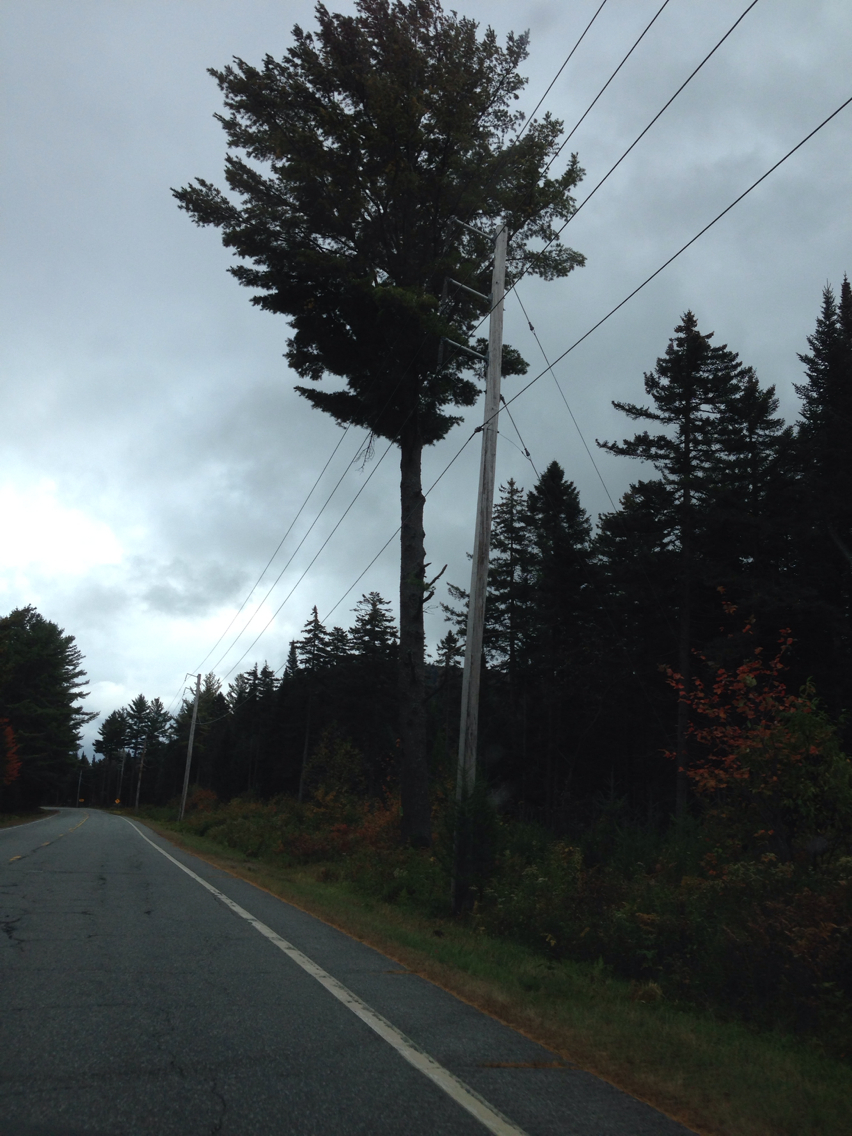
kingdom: Plantae
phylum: Tracheophyta
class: Pinopsida
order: Pinales
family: Pinaceae
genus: Pinus
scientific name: Pinus strobus
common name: Weymouth pine
